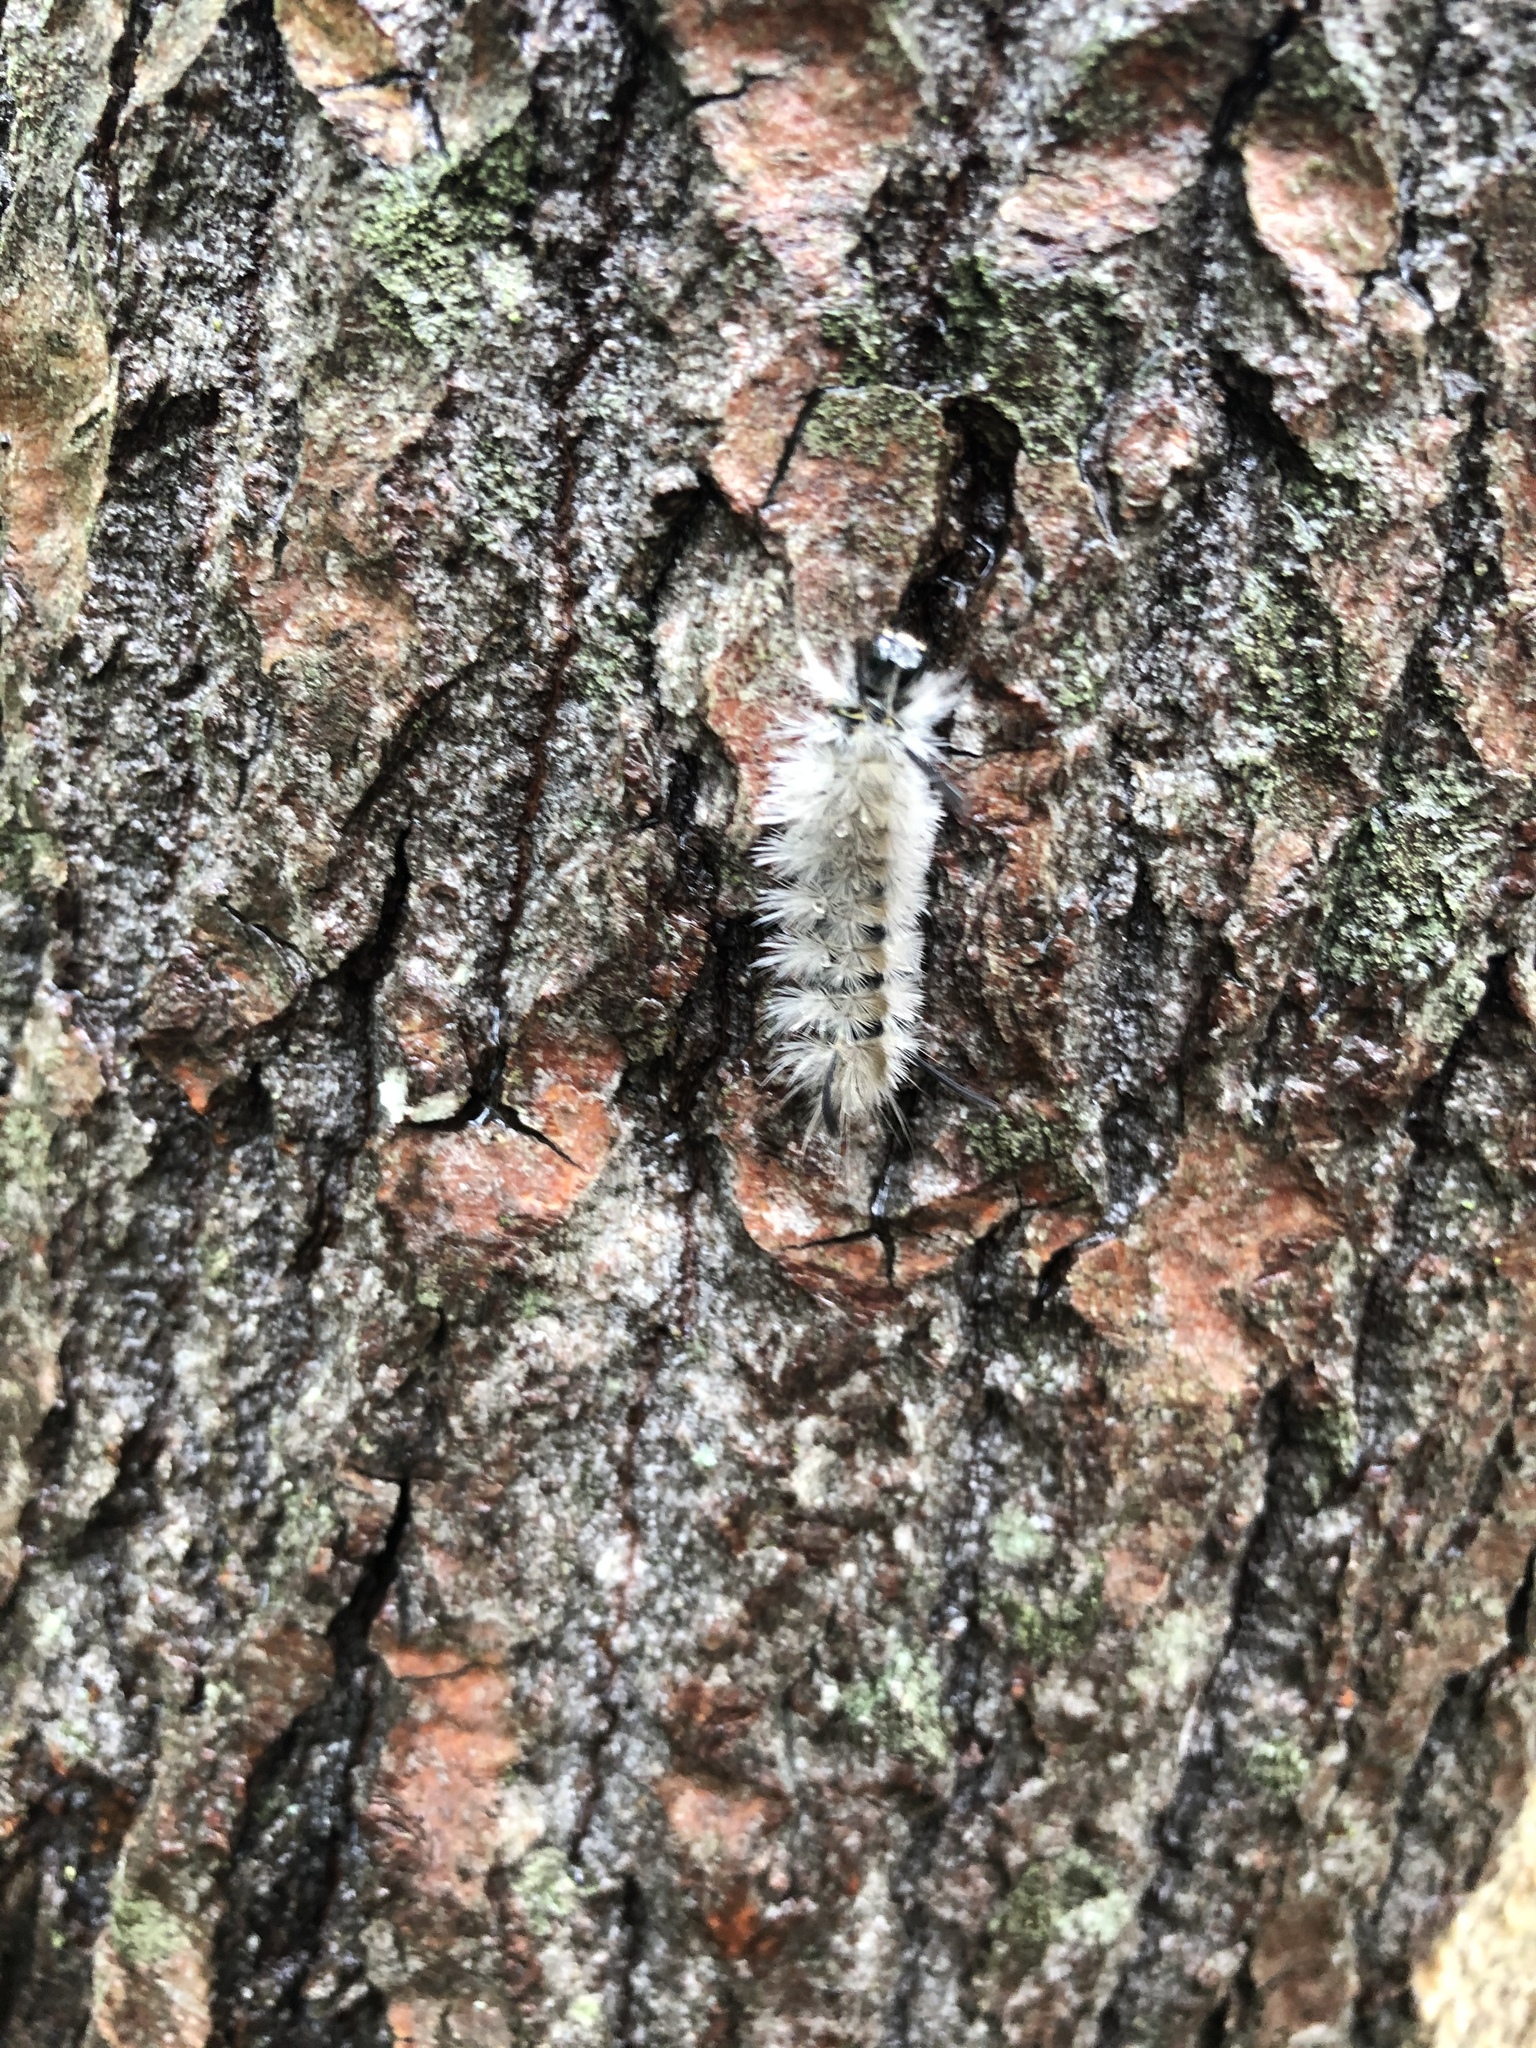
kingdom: Animalia
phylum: Arthropoda
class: Insecta
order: Lepidoptera
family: Erebidae
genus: Halysidota
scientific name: Halysidota tessellaris
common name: Banded tussock moth
